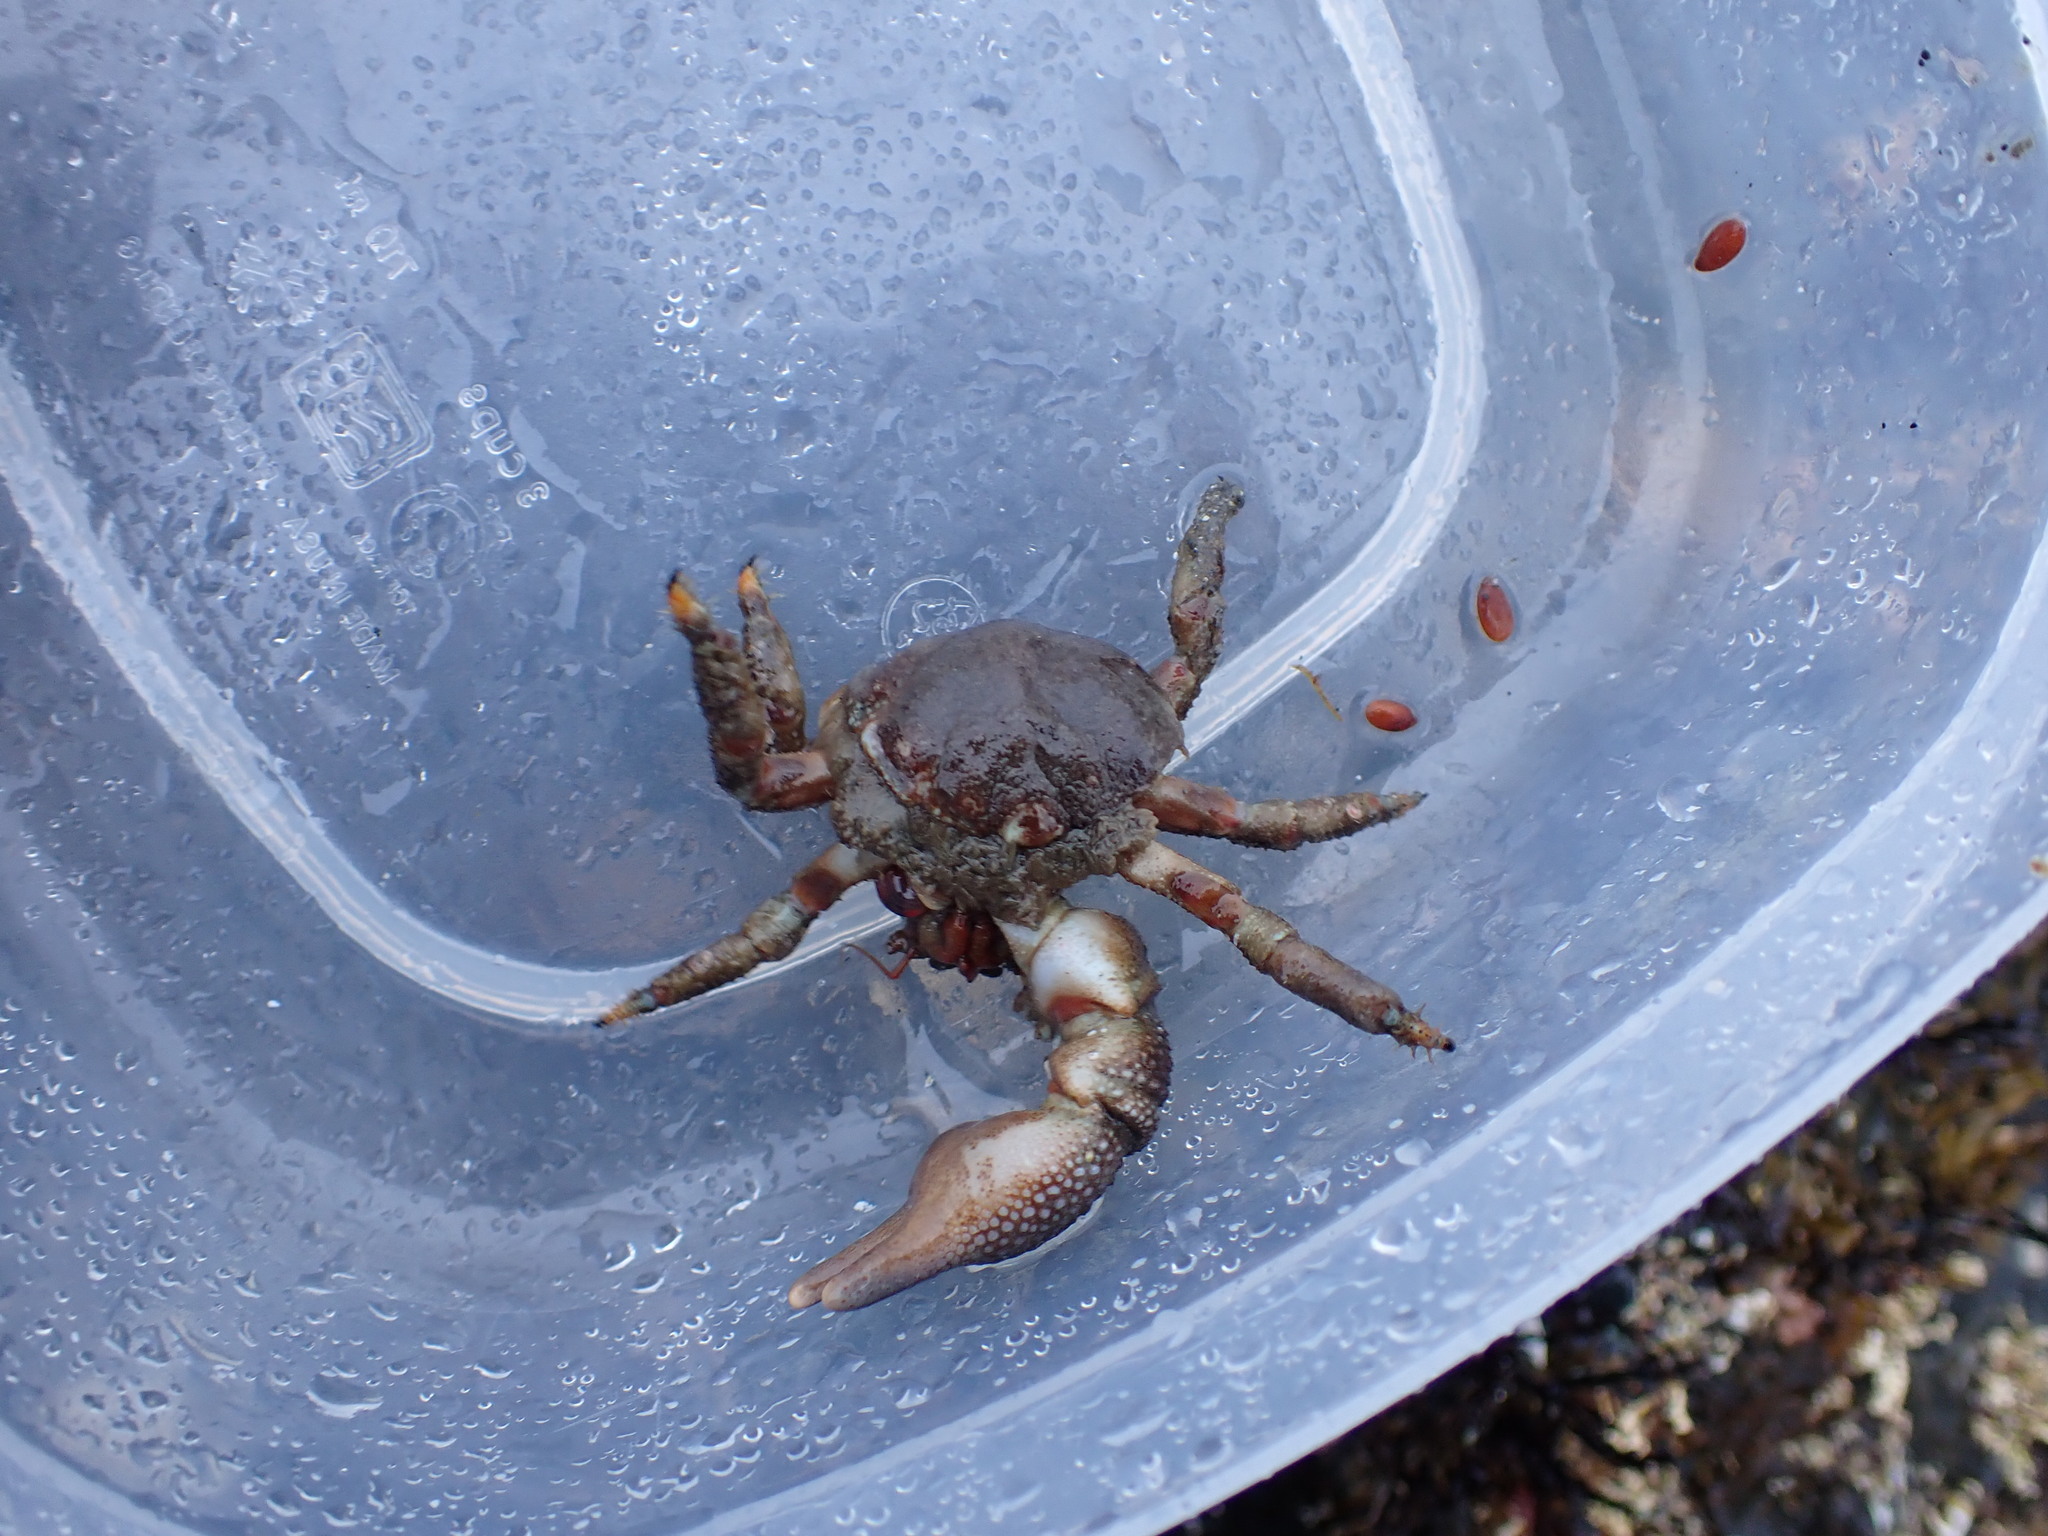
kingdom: Animalia
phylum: Arthropoda
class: Malacostraca
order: Decapoda
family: Hapalogastridae
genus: Oedignathus
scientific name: Oedignathus inermis
